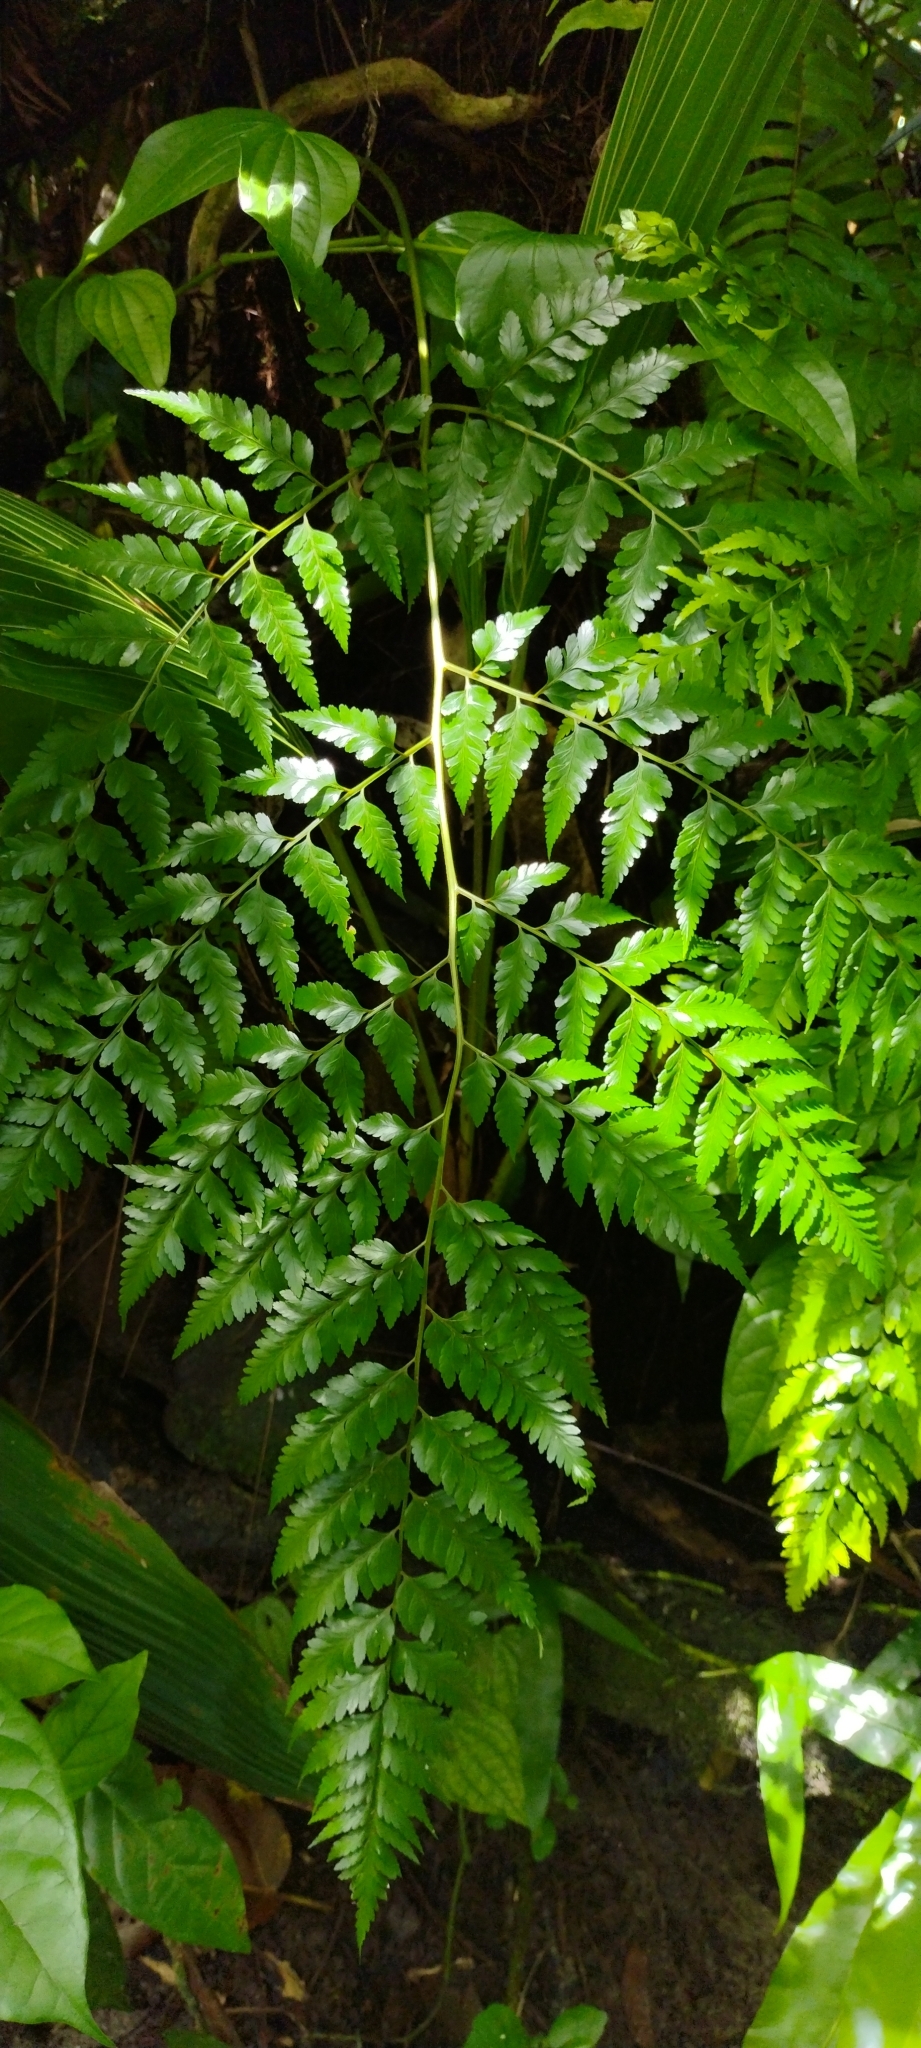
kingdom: Plantae
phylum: Tracheophyta
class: Polypodiopsida
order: Polypodiales
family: Davalliaceae
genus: Davallia
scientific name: Davallia solida
